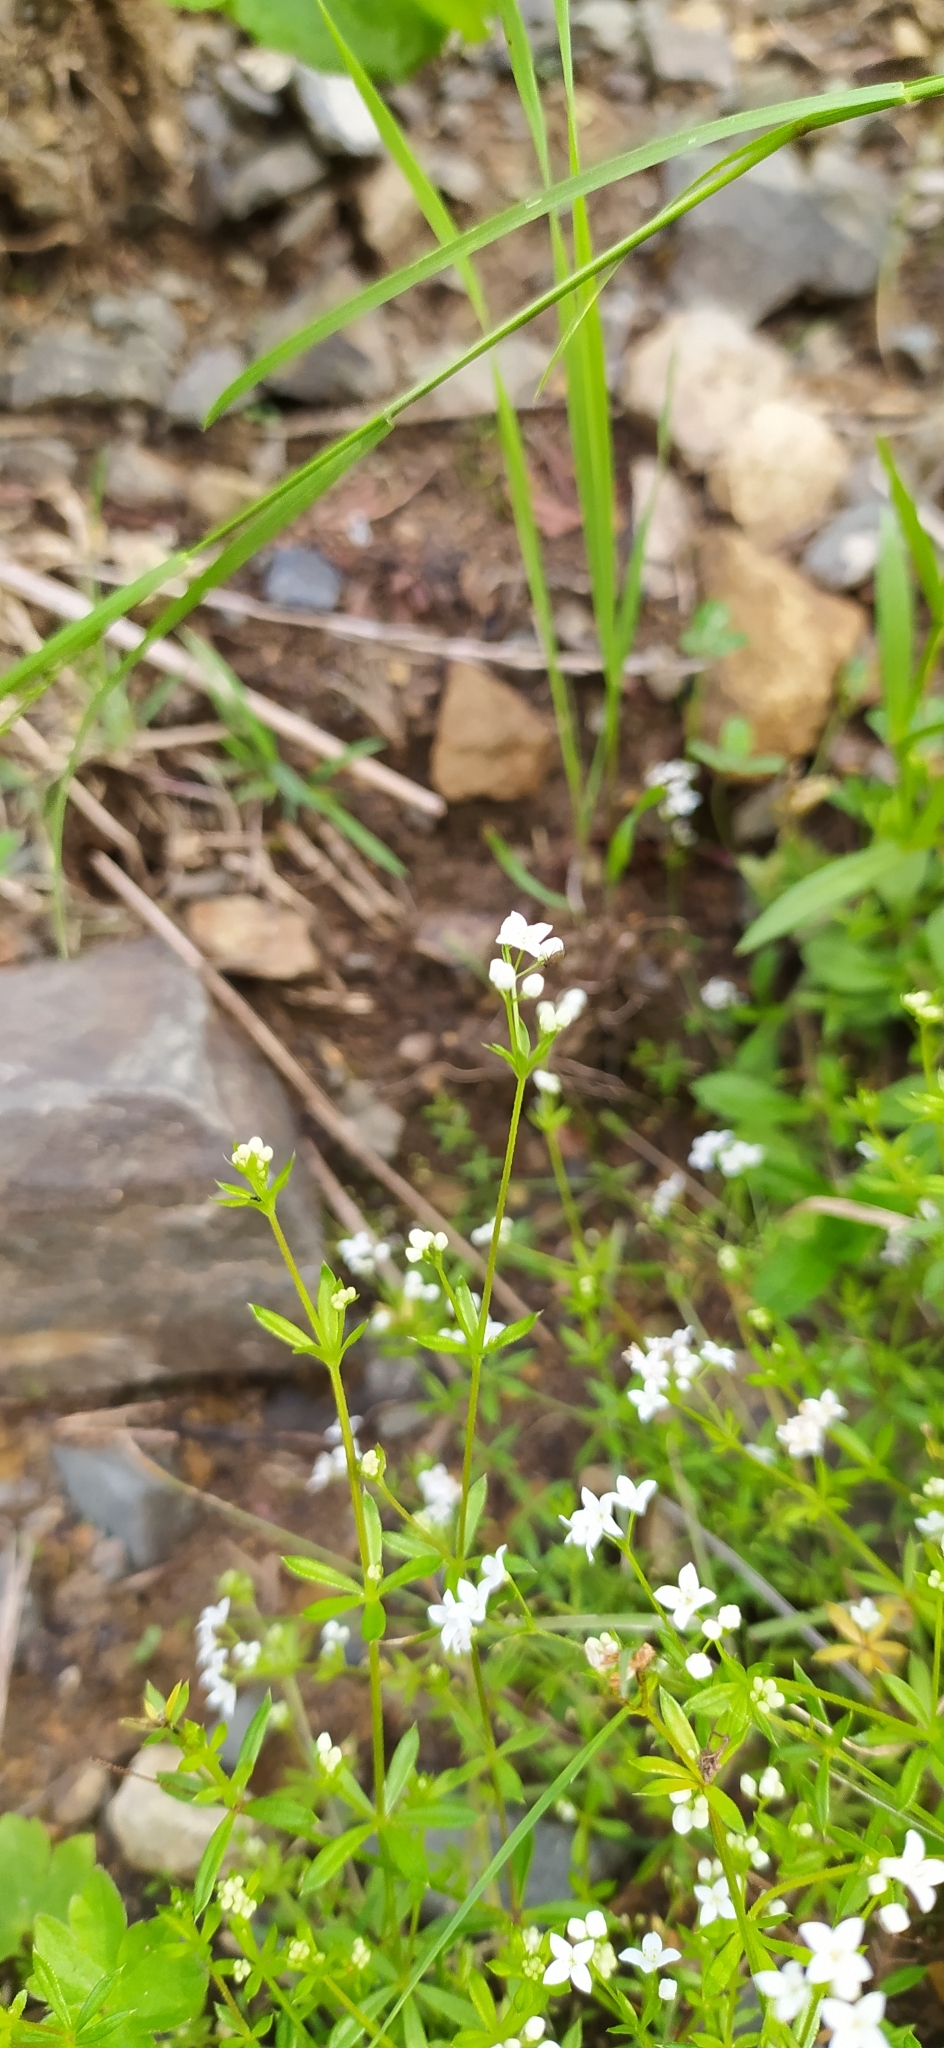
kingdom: Plantae
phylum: Tracheophyta
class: Magnoliopsida
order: Gentianales
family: Rubiaceae
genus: Galium
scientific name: Galium rivale
